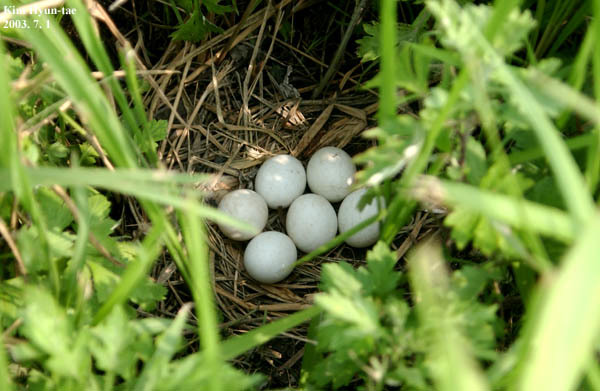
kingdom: Animalia
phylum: Chordata
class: Aves
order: Pelecaniformes
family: Ardeidae
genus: Ixobrychus
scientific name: Ixobrychus eurhythmus
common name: Von schrenck's bittern
